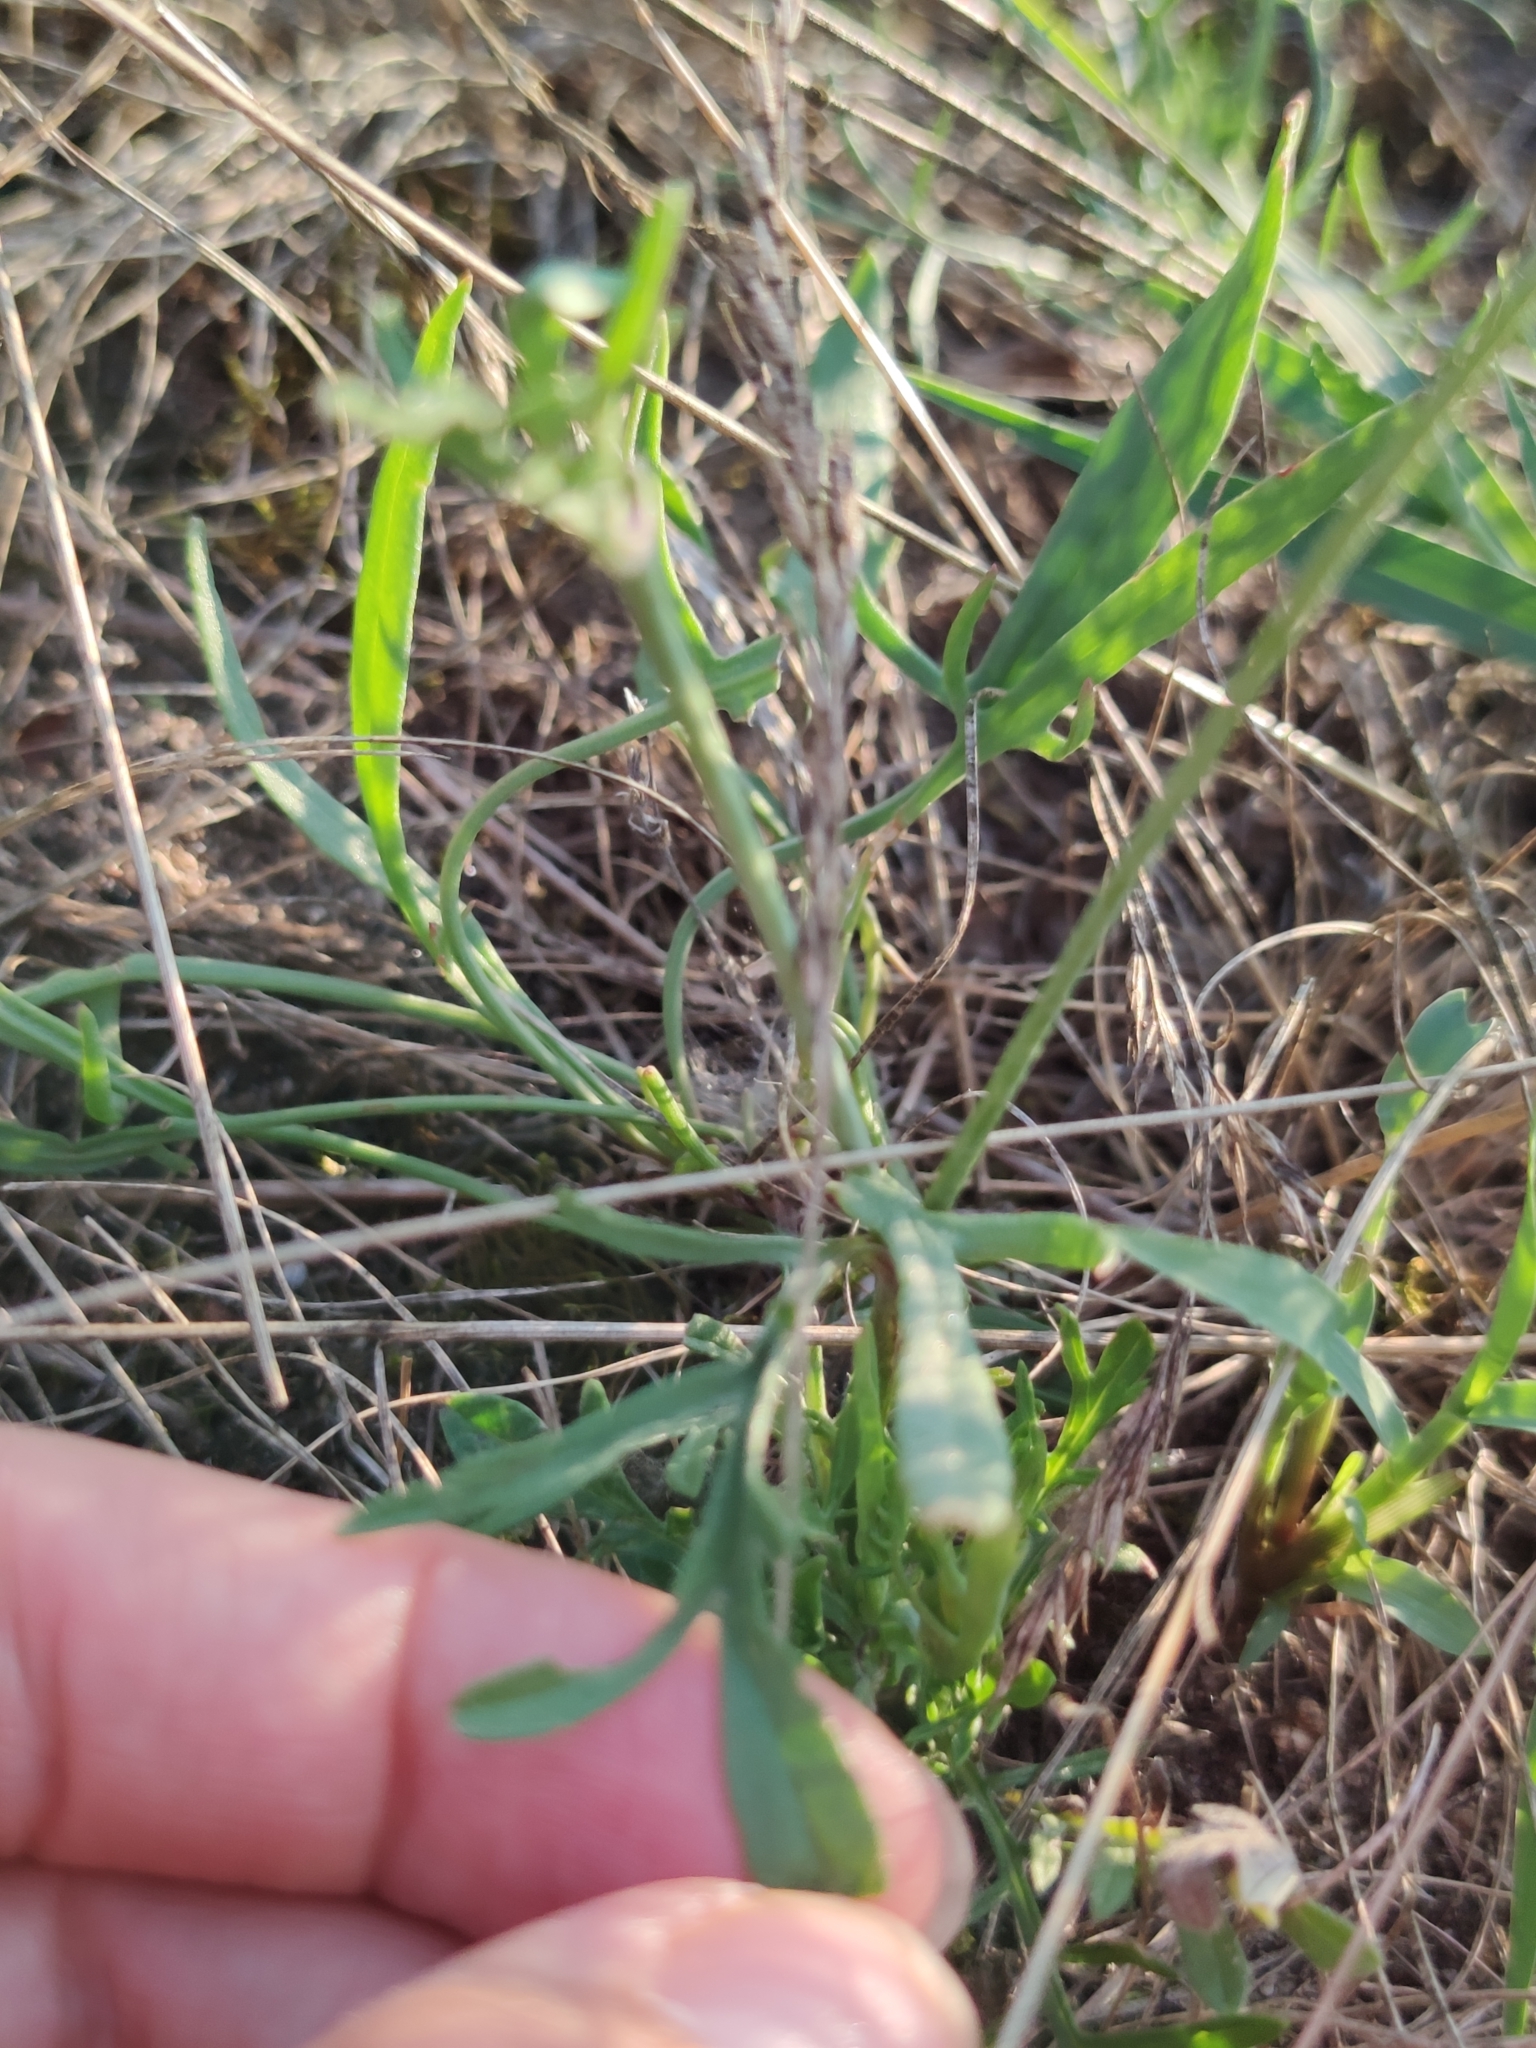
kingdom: Plantae
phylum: Tracheophyta
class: Magnoliopsida
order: Dipsacales
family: Caprifoliaceae
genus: Scabiosa
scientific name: Scabiosa ochroleuca
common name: Cream pincushions
